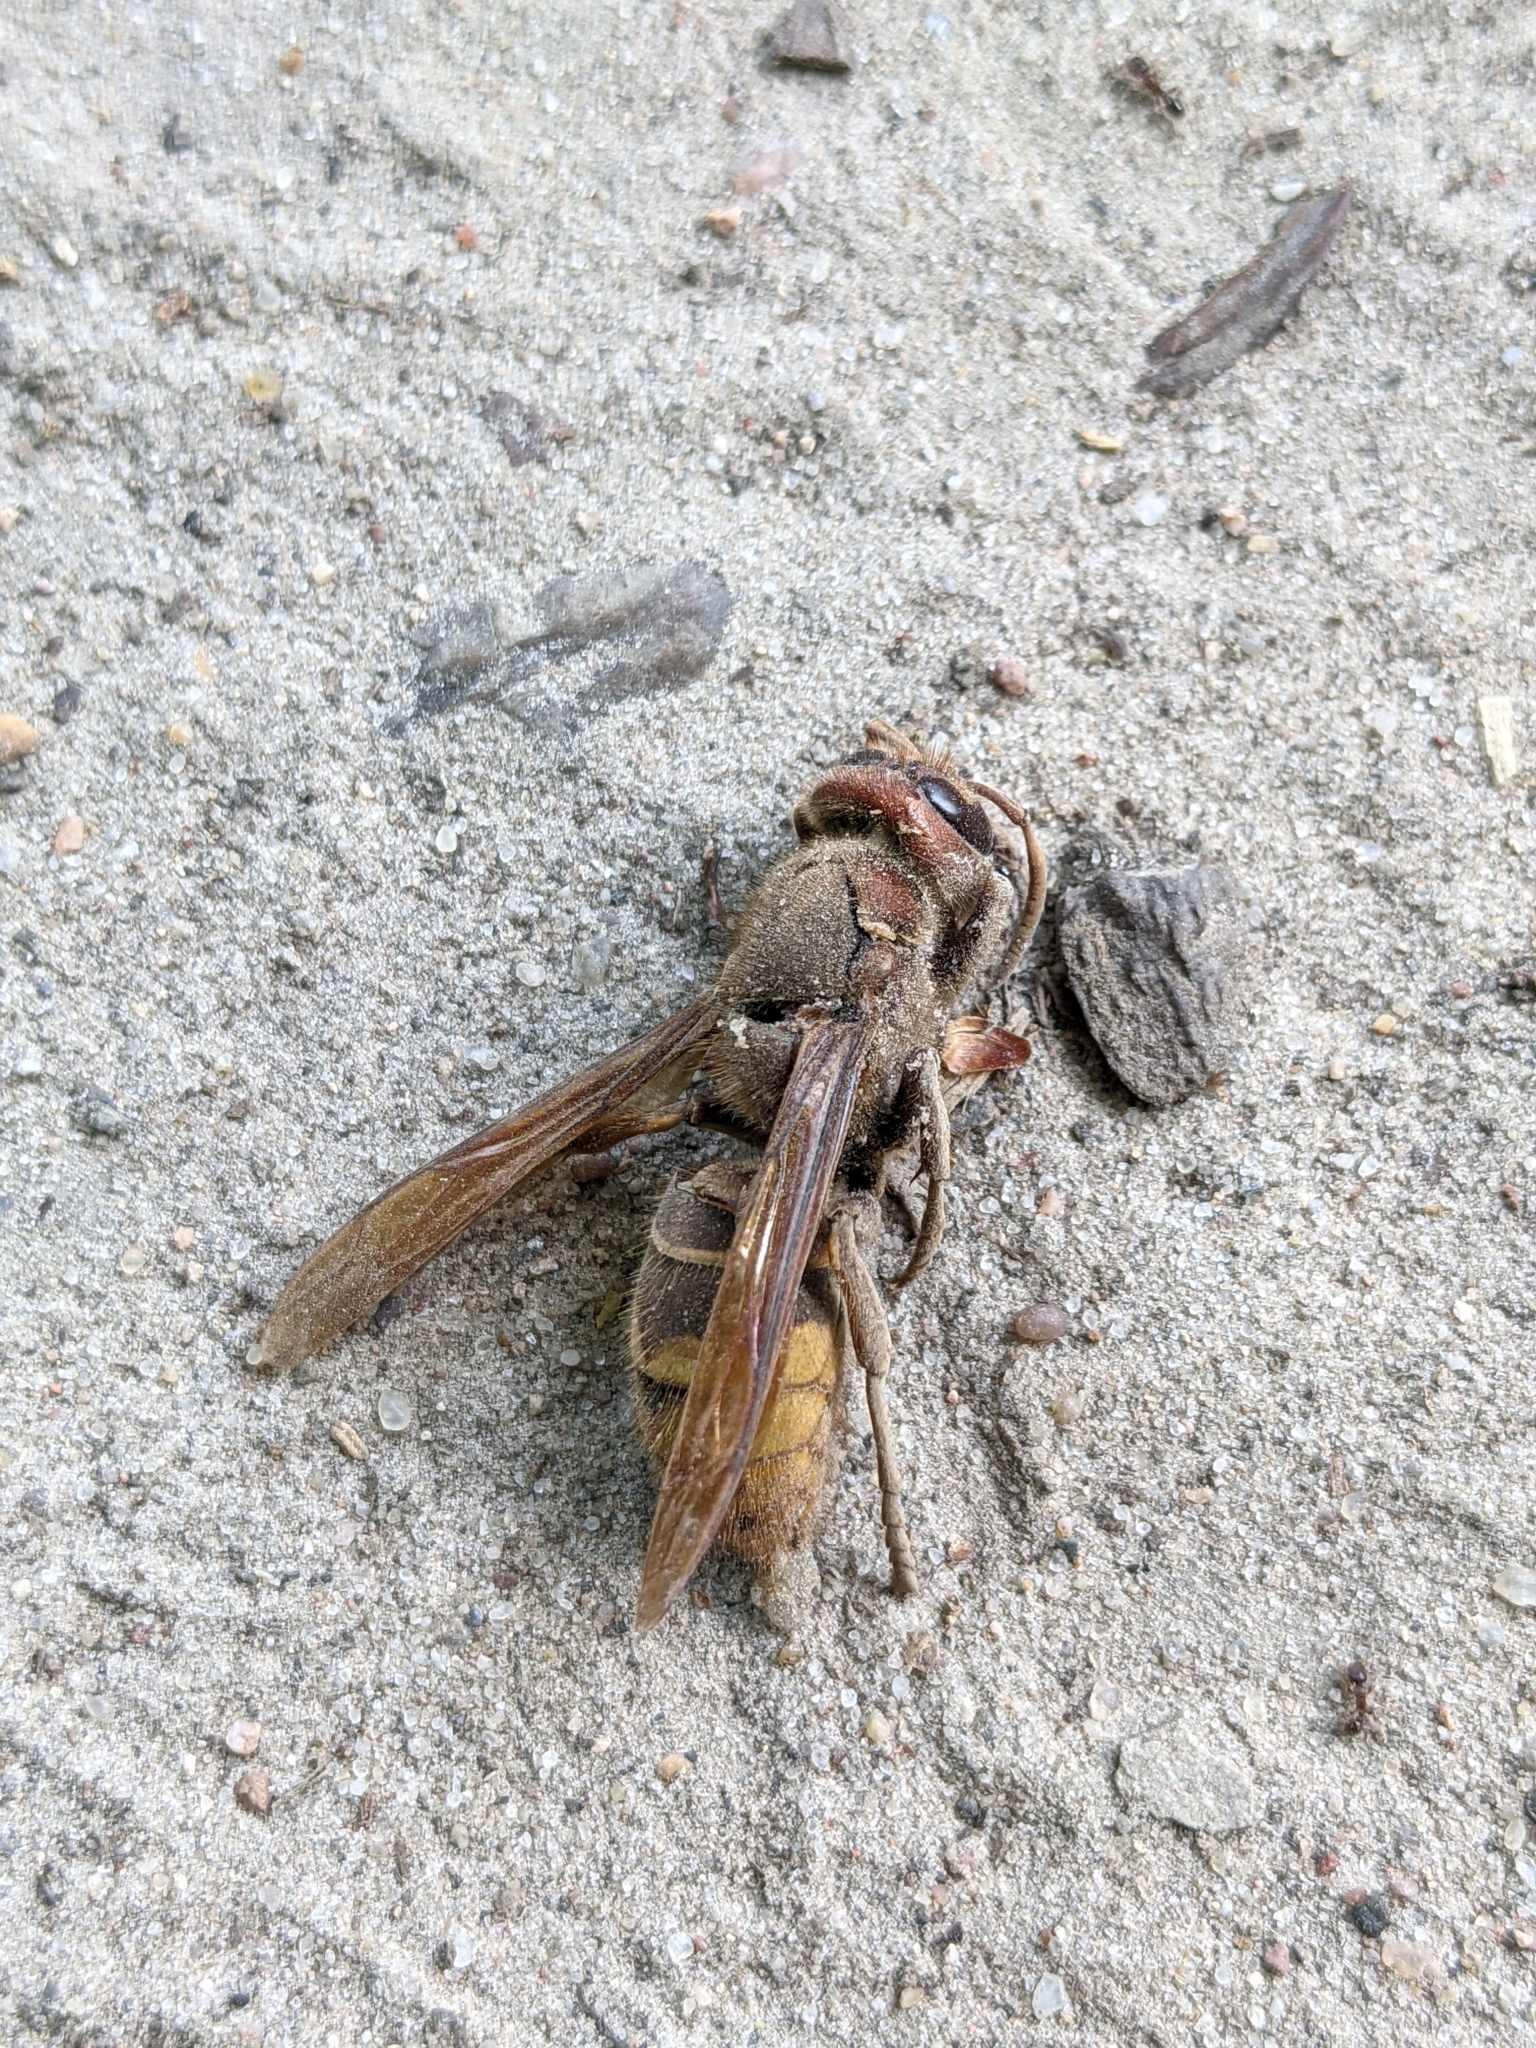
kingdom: Animalia
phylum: Arthropoda
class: Insecta
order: Hymenoptera
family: Vespidae
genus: Vespa
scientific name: Vespa crabro
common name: Hornet
